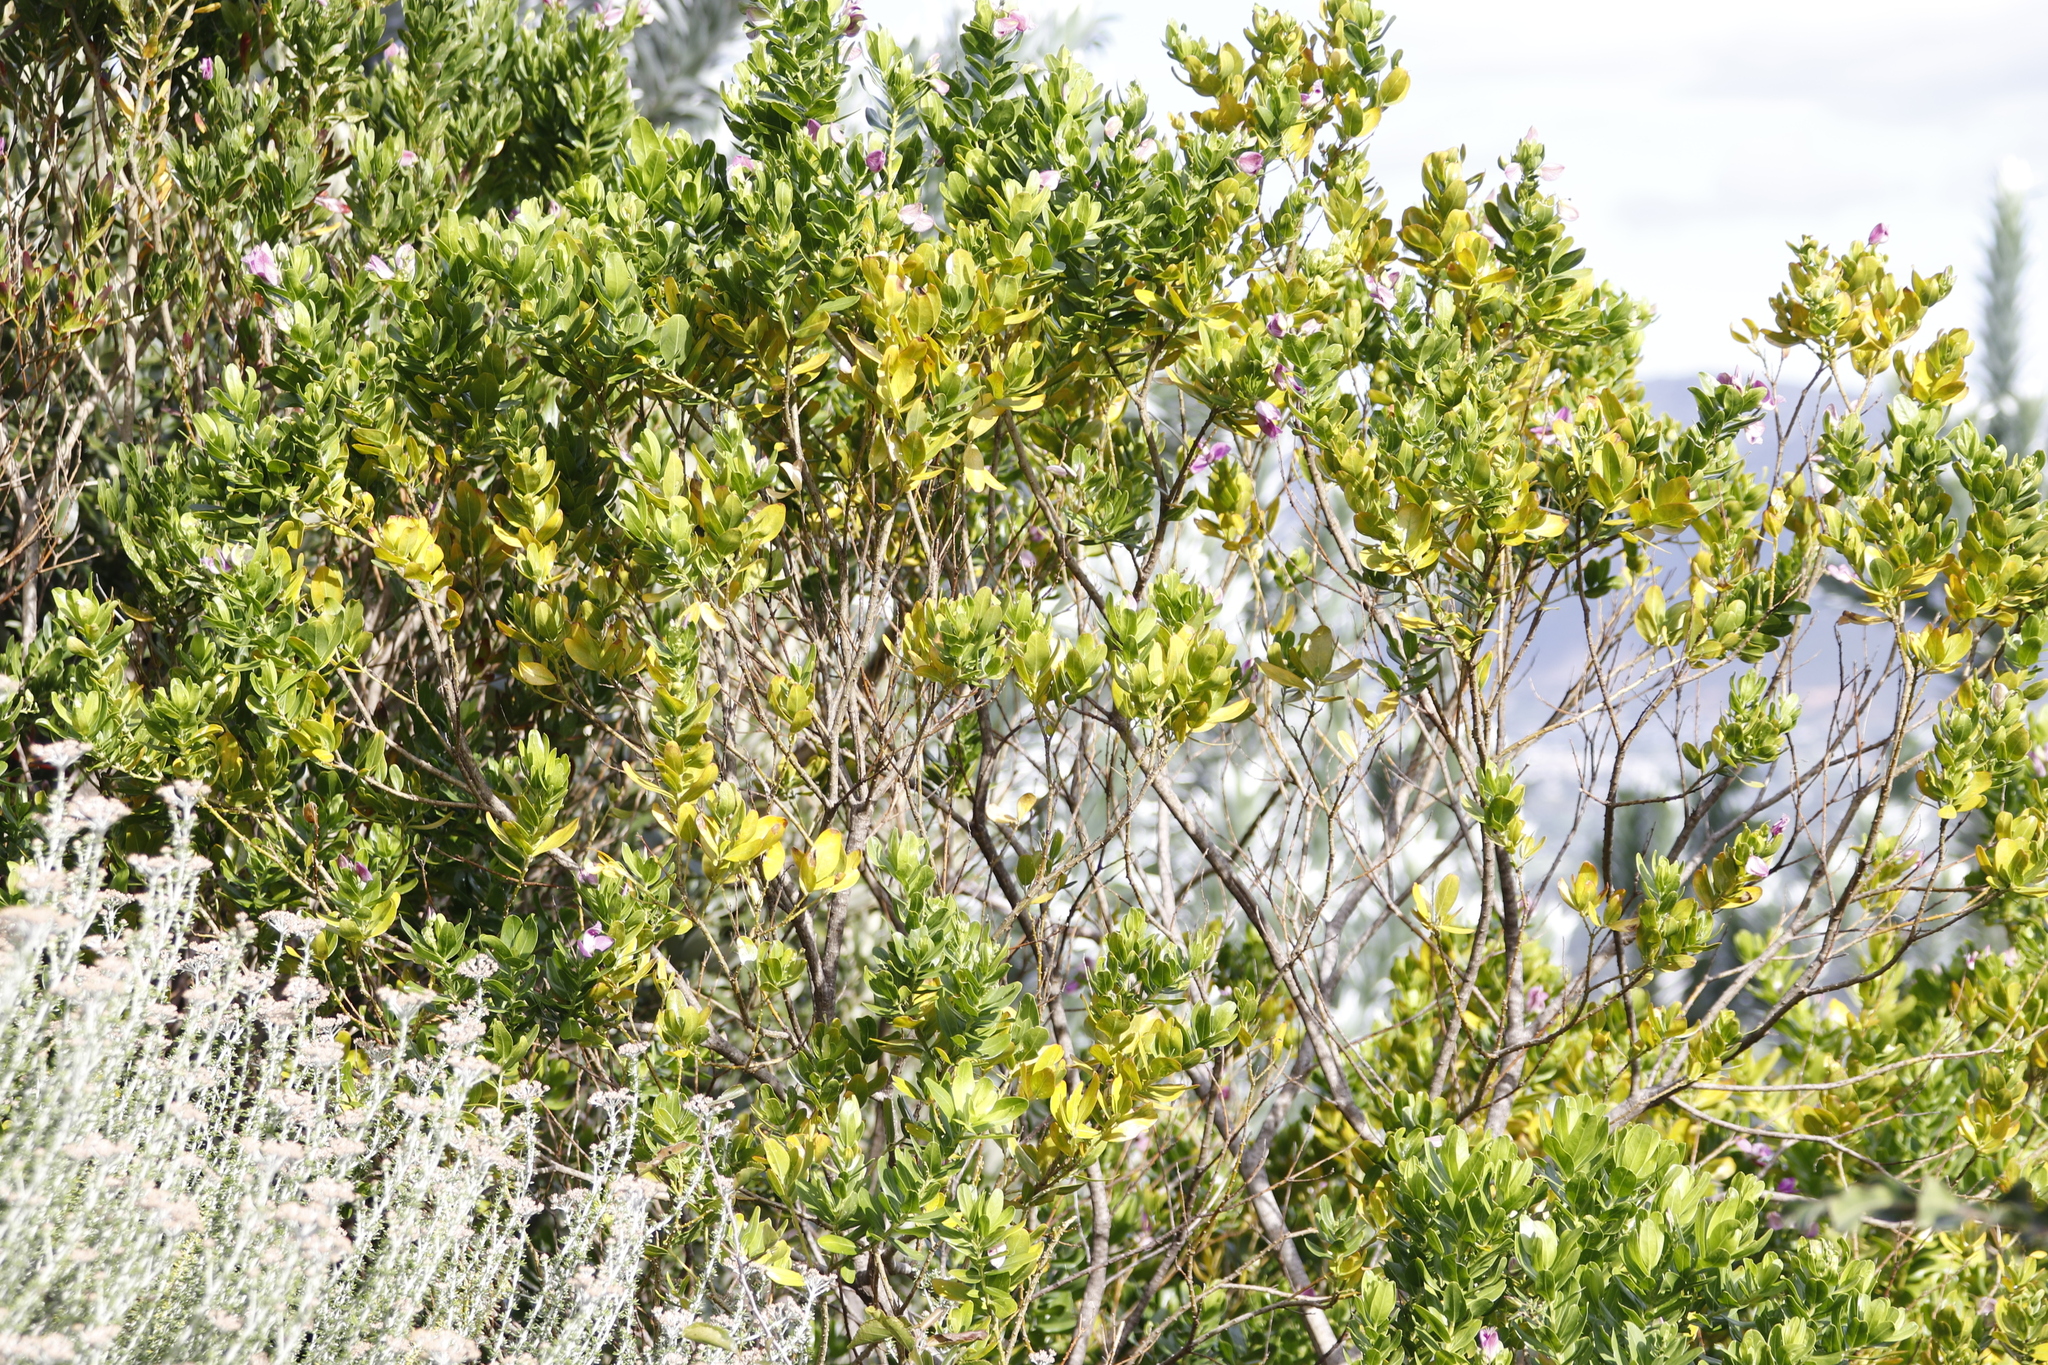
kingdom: Plantae
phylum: Tracheophyta
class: Magnoliopsida
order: Fabales
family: Polygalaceae
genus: Polygala
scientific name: Polygala myrtifolia
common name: Myrtle-leaf milkwort
